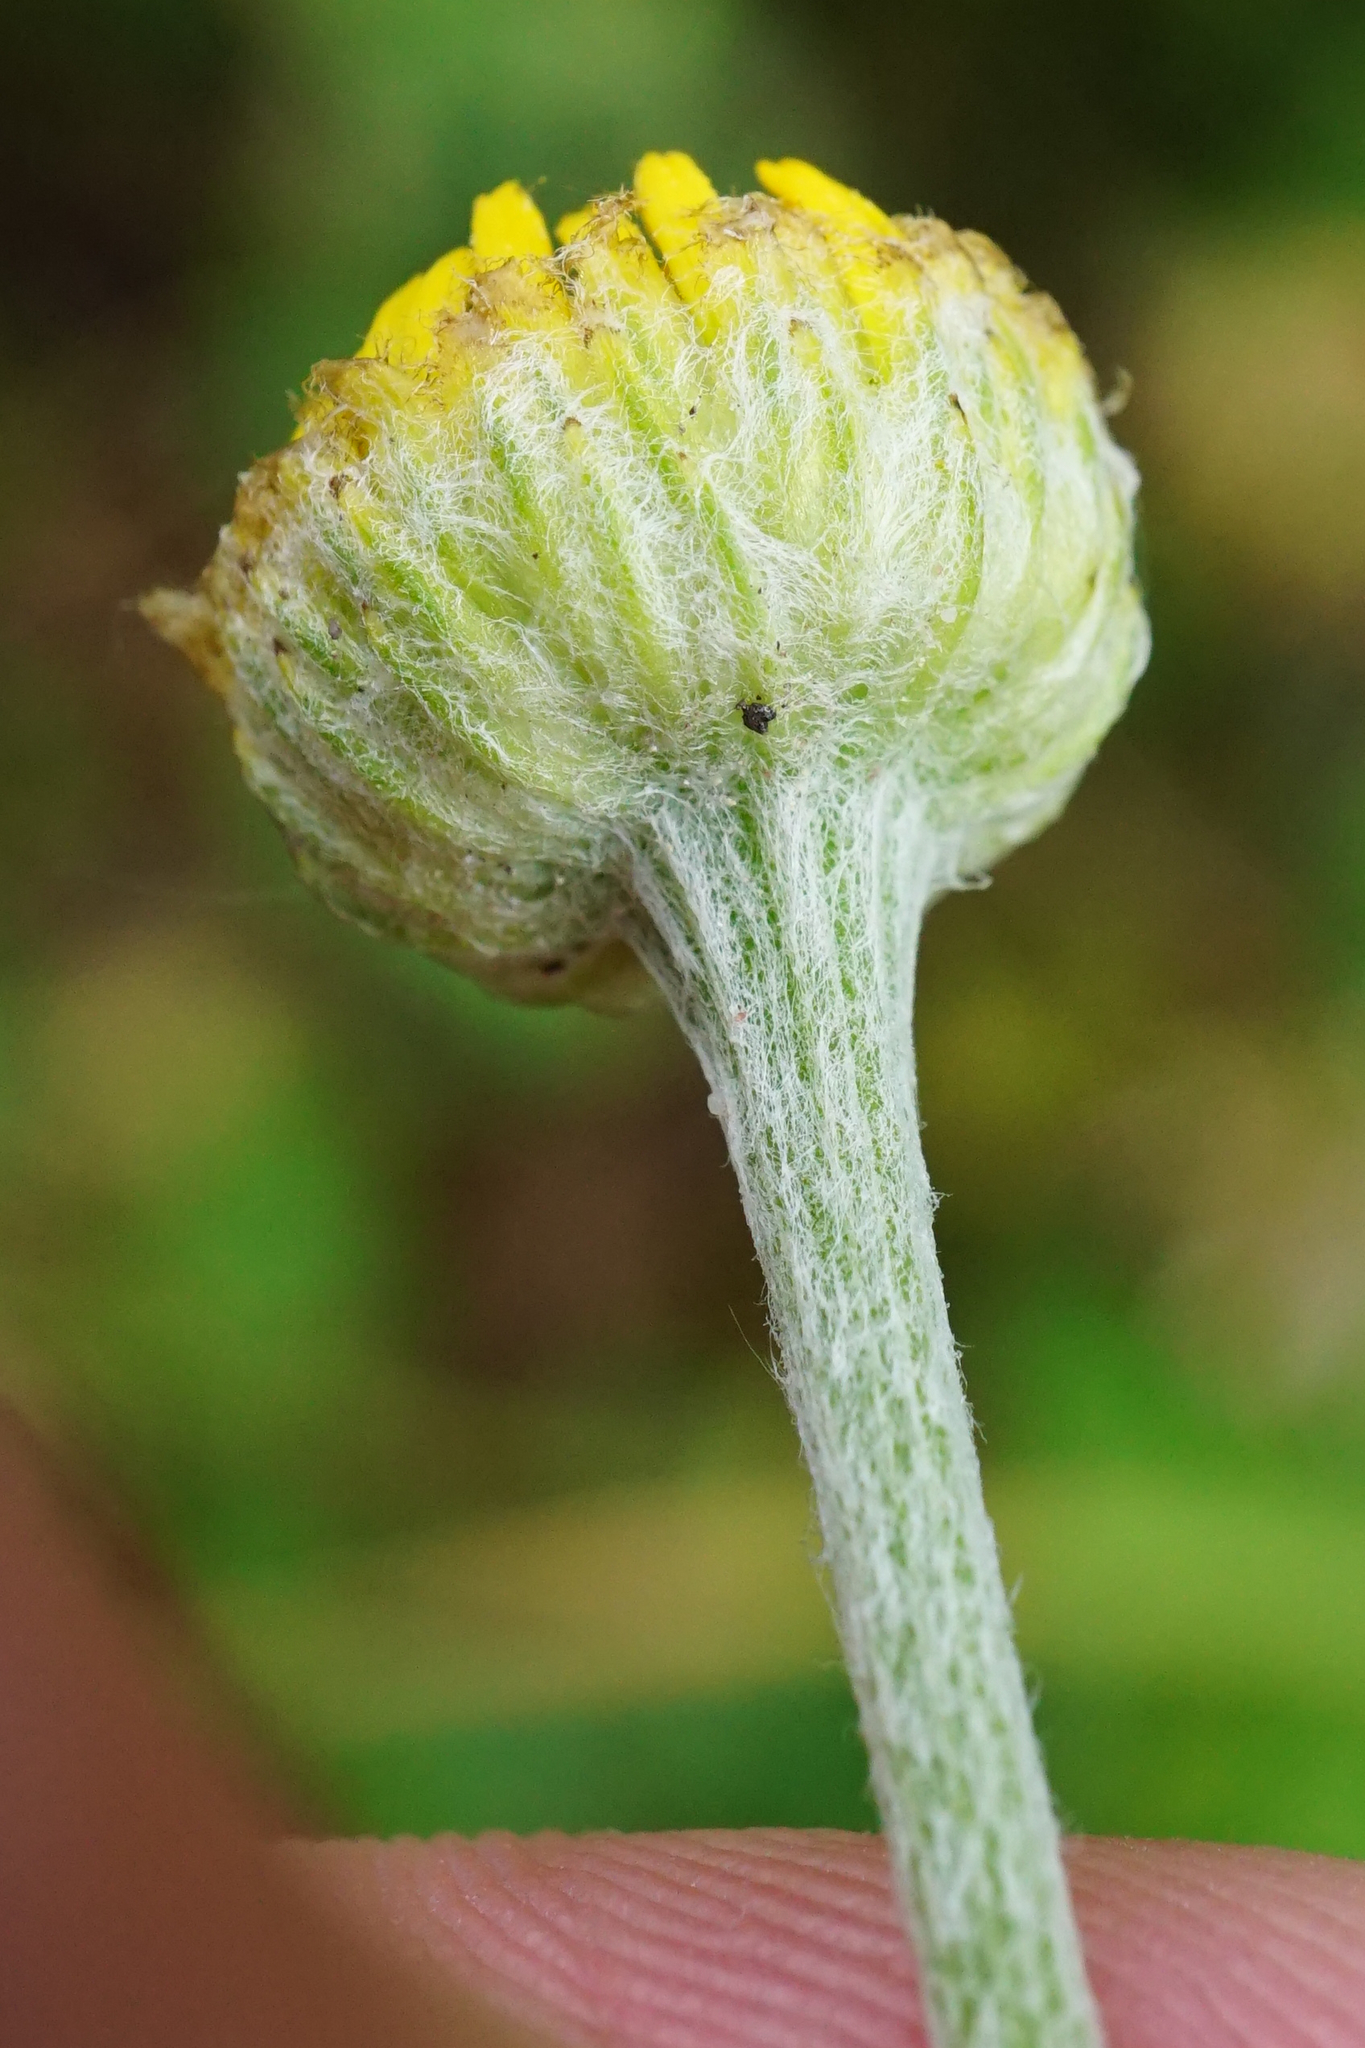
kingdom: Plantae
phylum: Tracheophyta
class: Magnoliopsida
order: Asterales
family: Asteraceae
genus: Cota
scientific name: Cota tinctoria
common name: Golden chamomile
